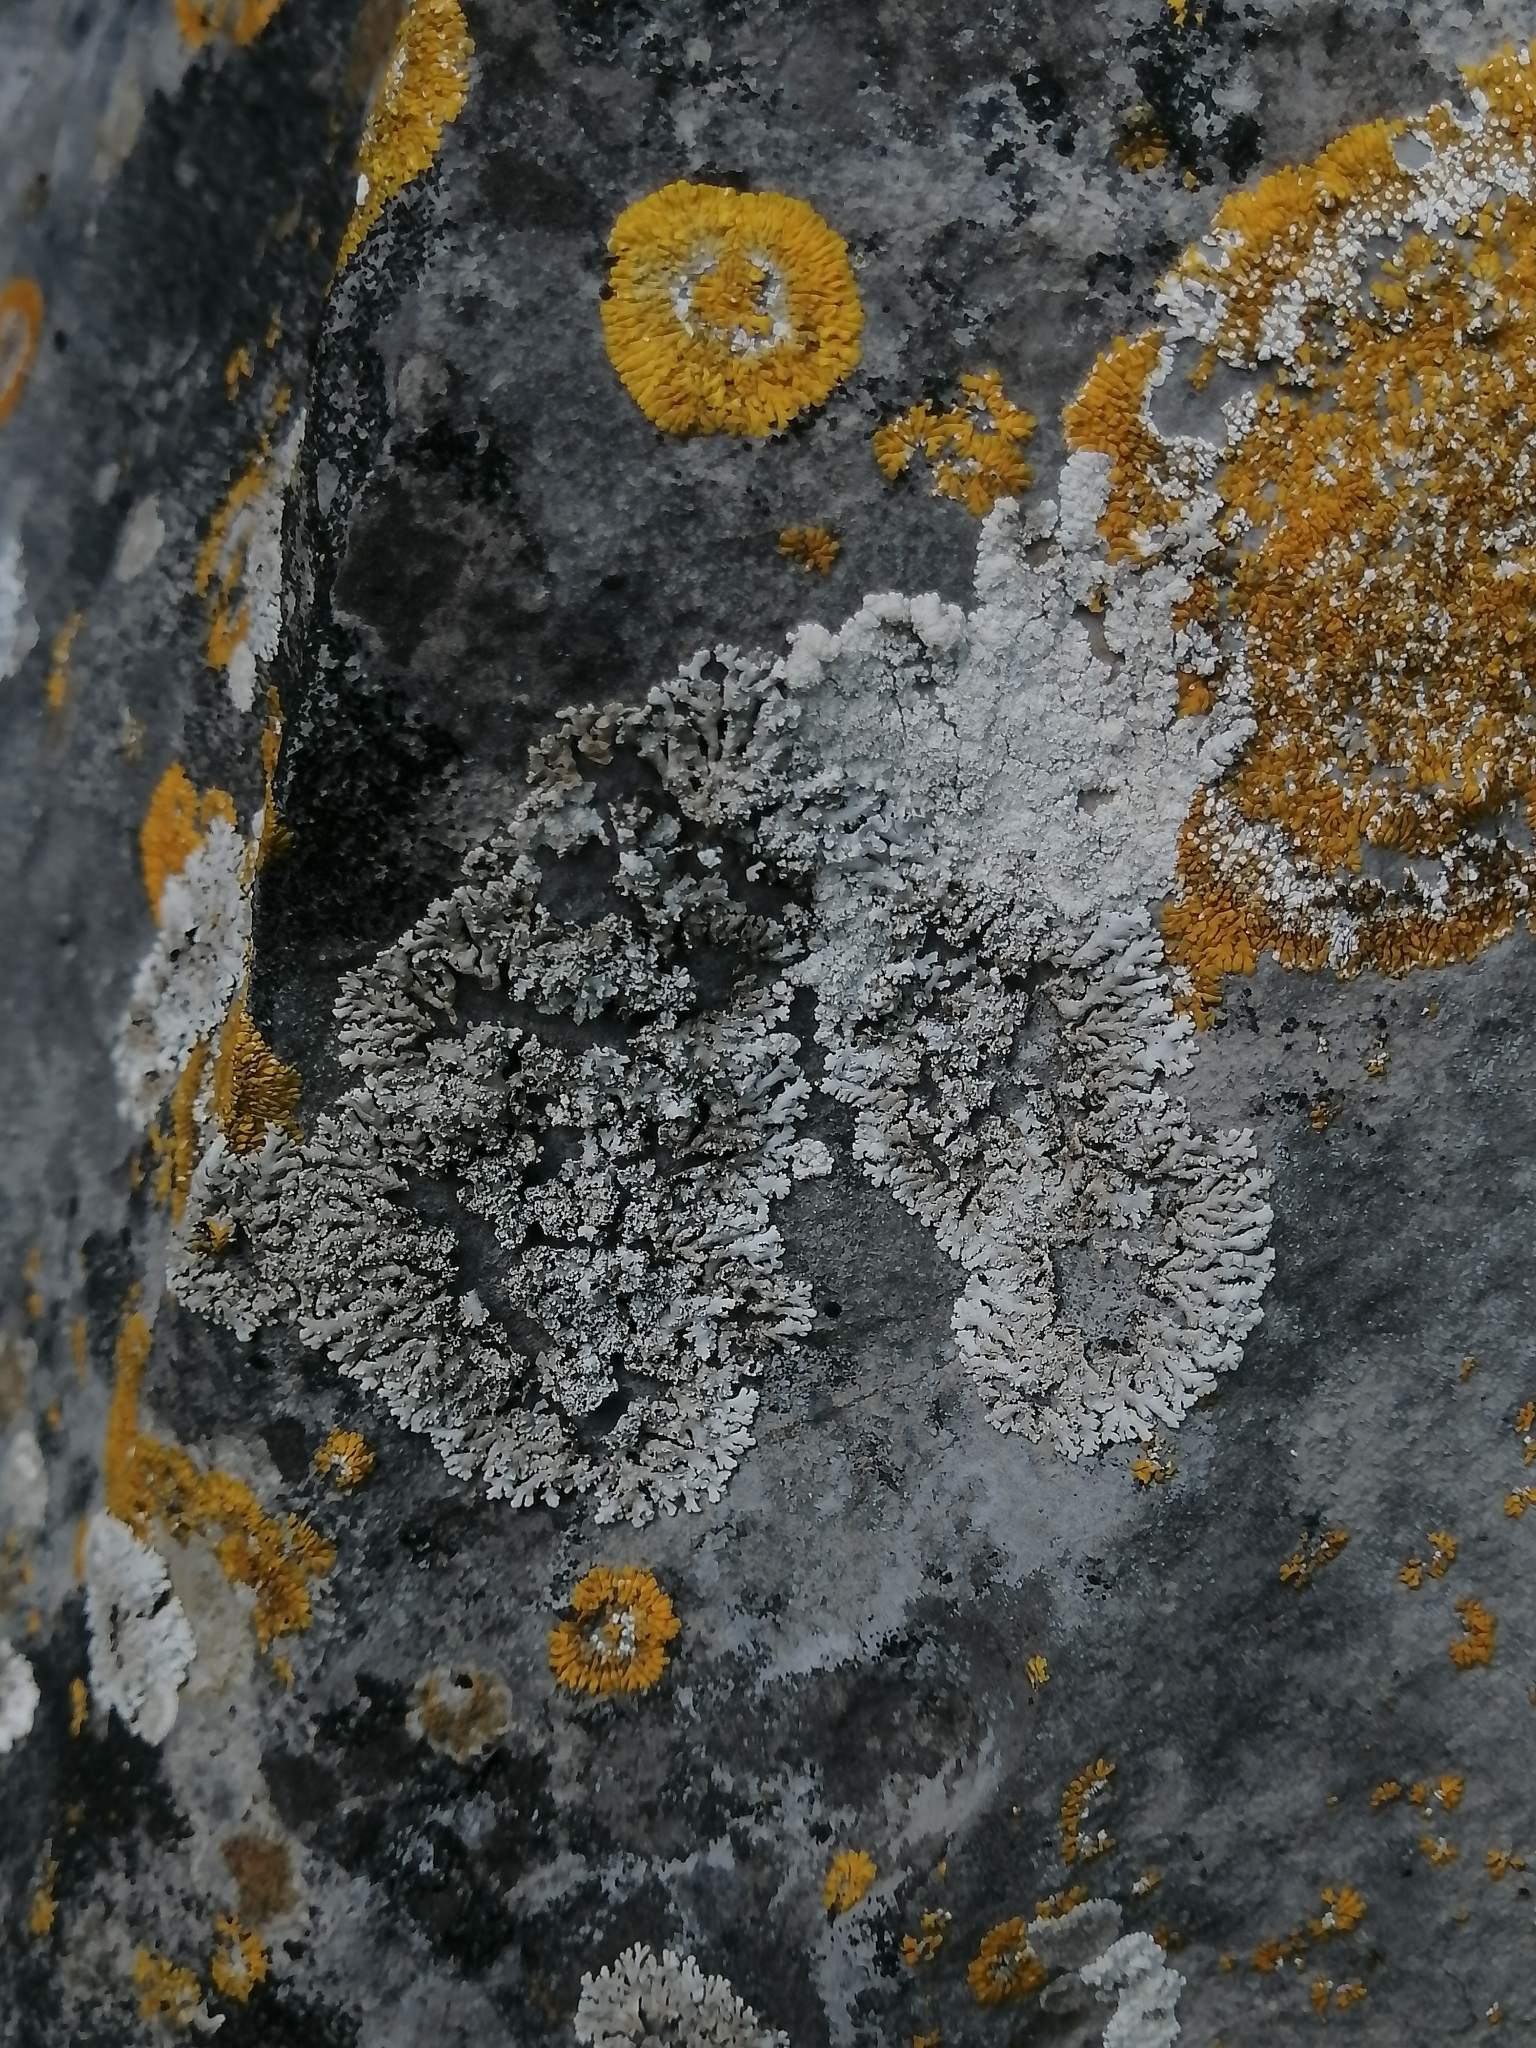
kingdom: Fungi
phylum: Ascomycota
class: Arthoniomycetes
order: Arthoniales
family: Lecanographaceae
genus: Alyxoria
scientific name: Alyxoria sierramadrensis
